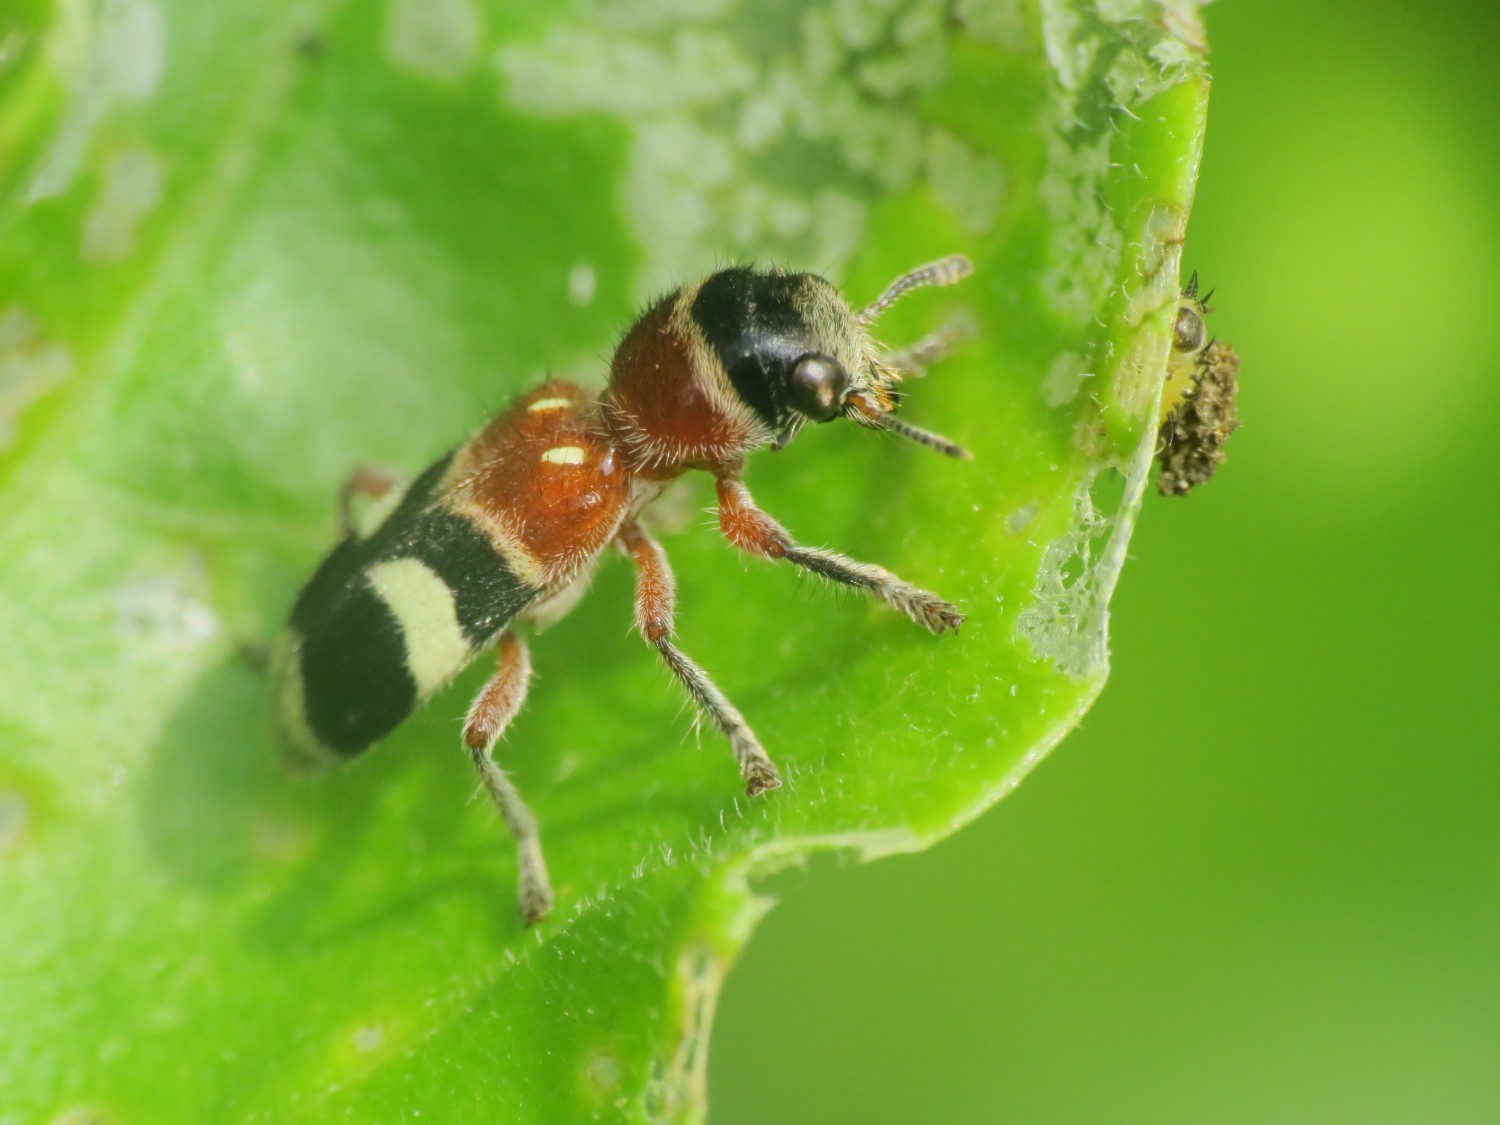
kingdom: Animalia
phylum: Arthropoda
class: Insecta
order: Coleoptera
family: Cleridae
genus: Enoclerus
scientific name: Enoclerus
